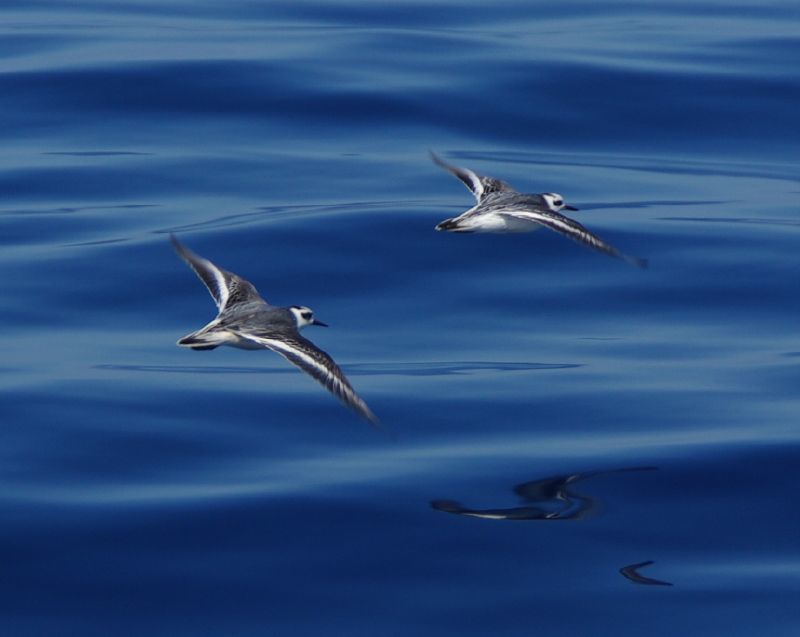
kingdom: Animalia
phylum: Chordata
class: Aves
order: Charadriiformes
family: Scolopacidae
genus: Phalaropus
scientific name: Phalaropus lobatus
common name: Red-necked phalarope
